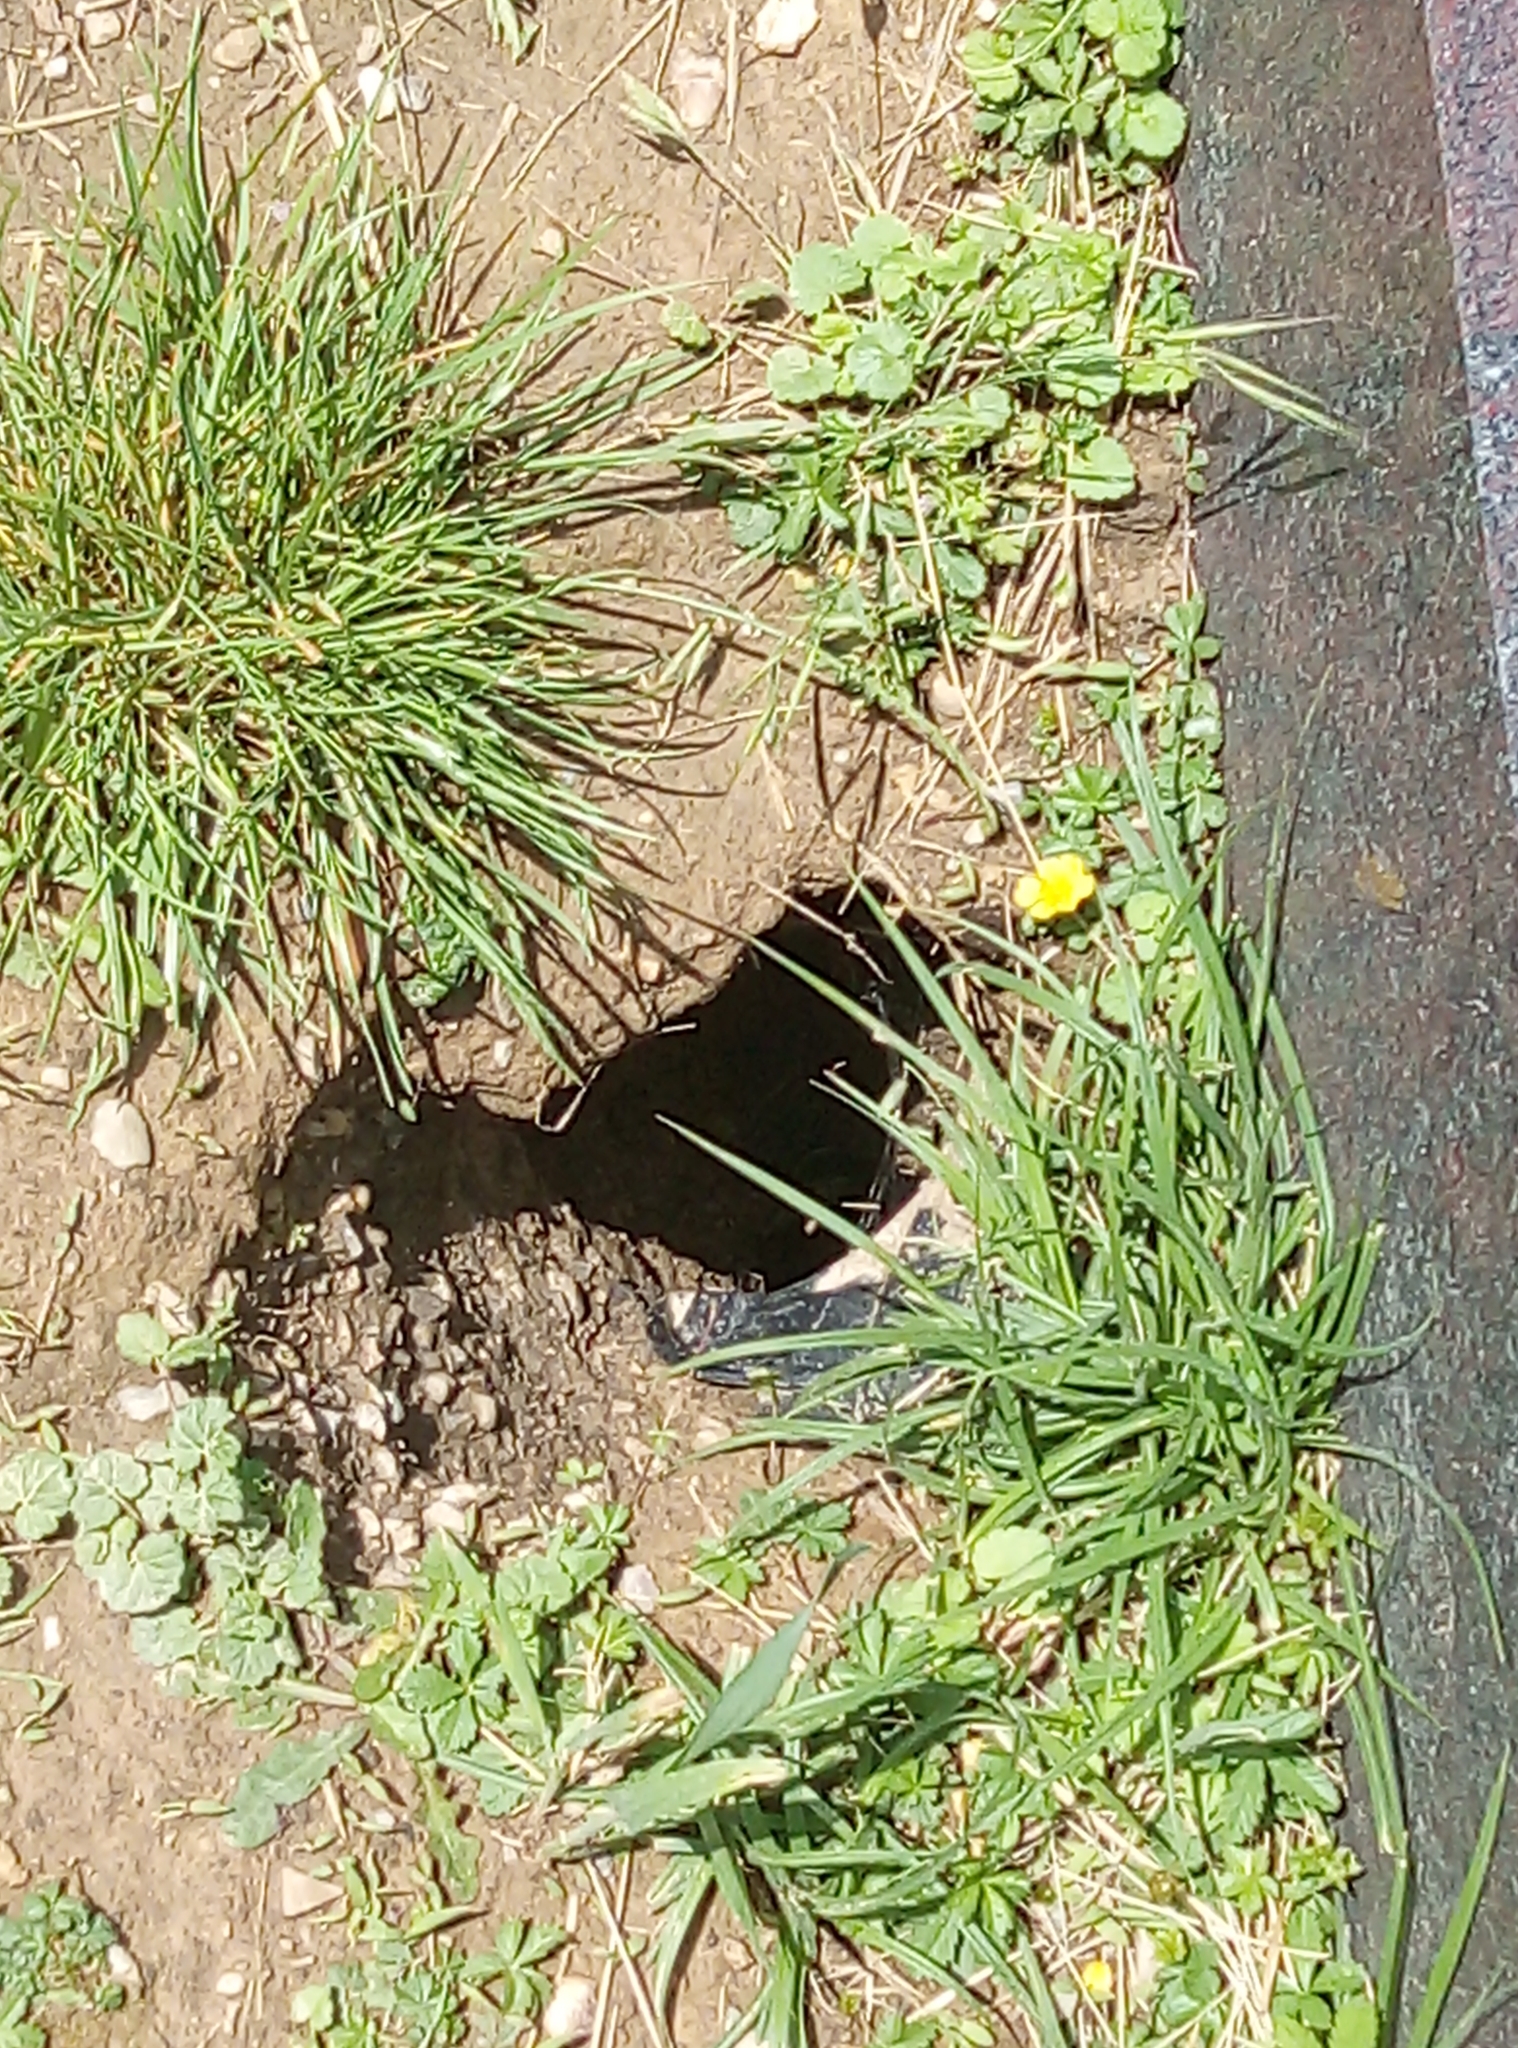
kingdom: Animalia
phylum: Chordata
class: Mammalia
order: Rodentia
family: Cricetidae
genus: Cricetus
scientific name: Cricetus cricetus
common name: Common hamster
